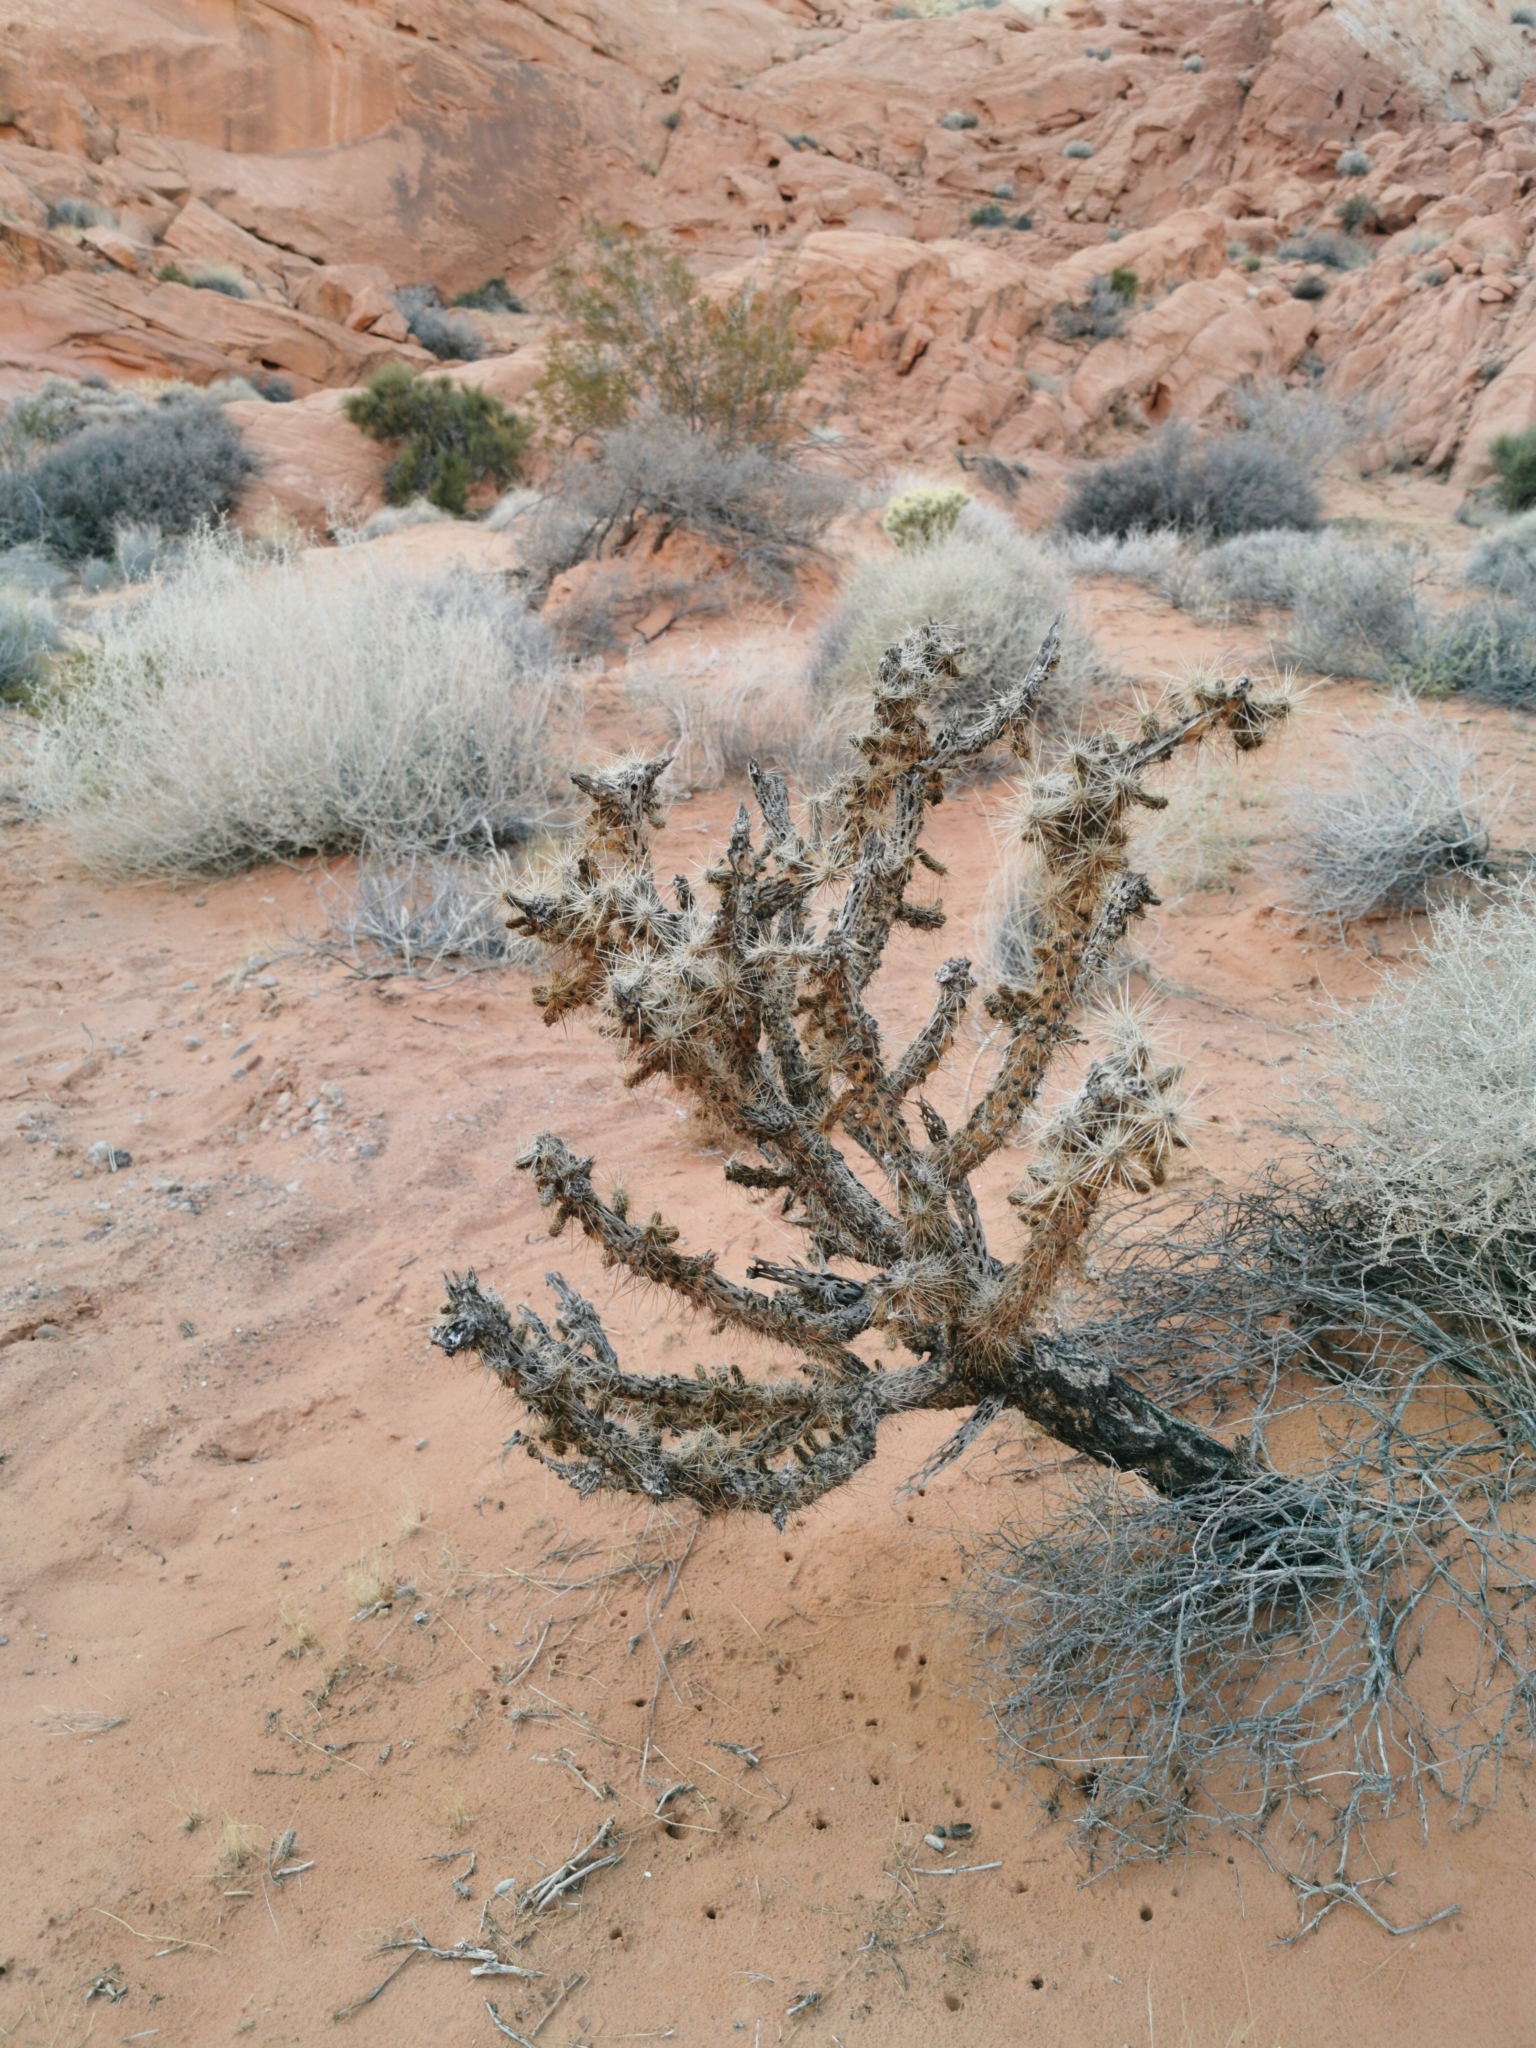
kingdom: Plantae
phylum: Tracheophyta
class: Magnoliopsida
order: Caryophyllales
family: Cactaceae
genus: Cylindropuntia
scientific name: Cylindropuntia echinocarpa
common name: Ground cholla
